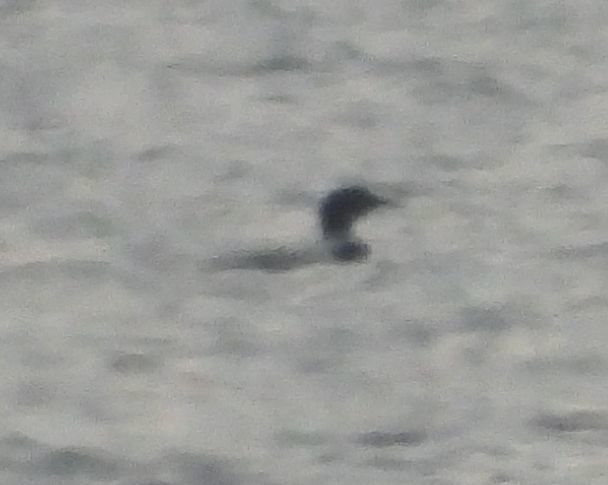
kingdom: Animalia
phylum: Chordata
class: Aves
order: Gaviiformes
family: Gaviidae
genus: Gavia
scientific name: Gavia immer
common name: Common loon
